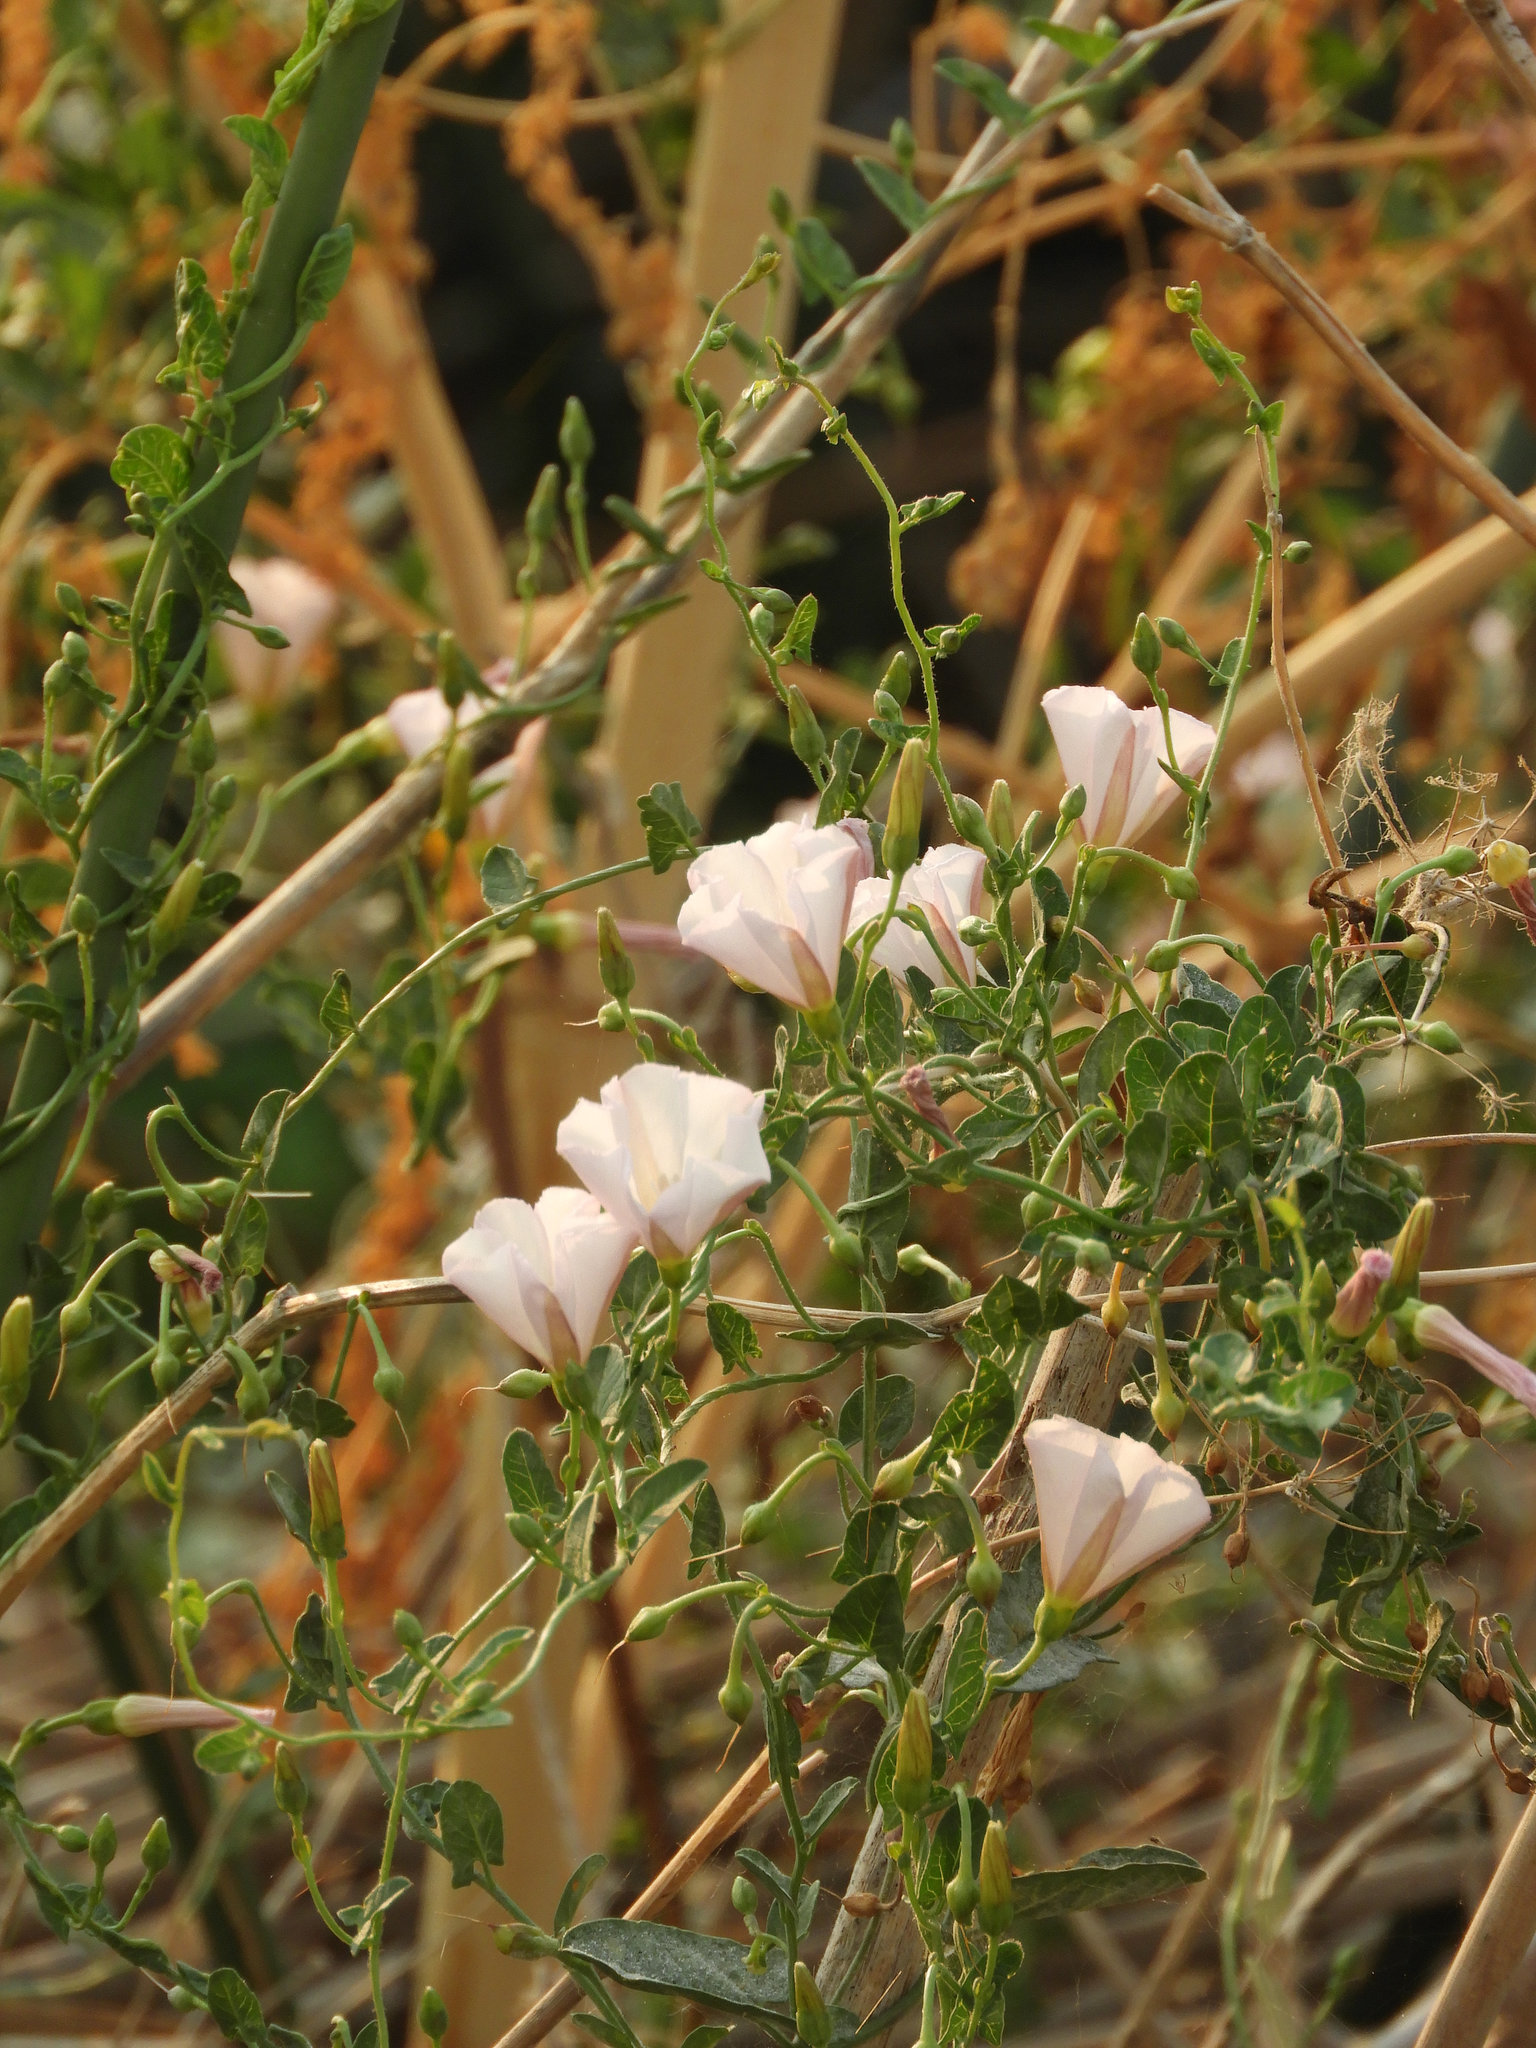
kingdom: Plantae
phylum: Tracheophyta
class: Magnoliopsida
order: Solanales
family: Convolvulaceae
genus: Convolvulus
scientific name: Convolvulus arvensis
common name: Field bindweed
